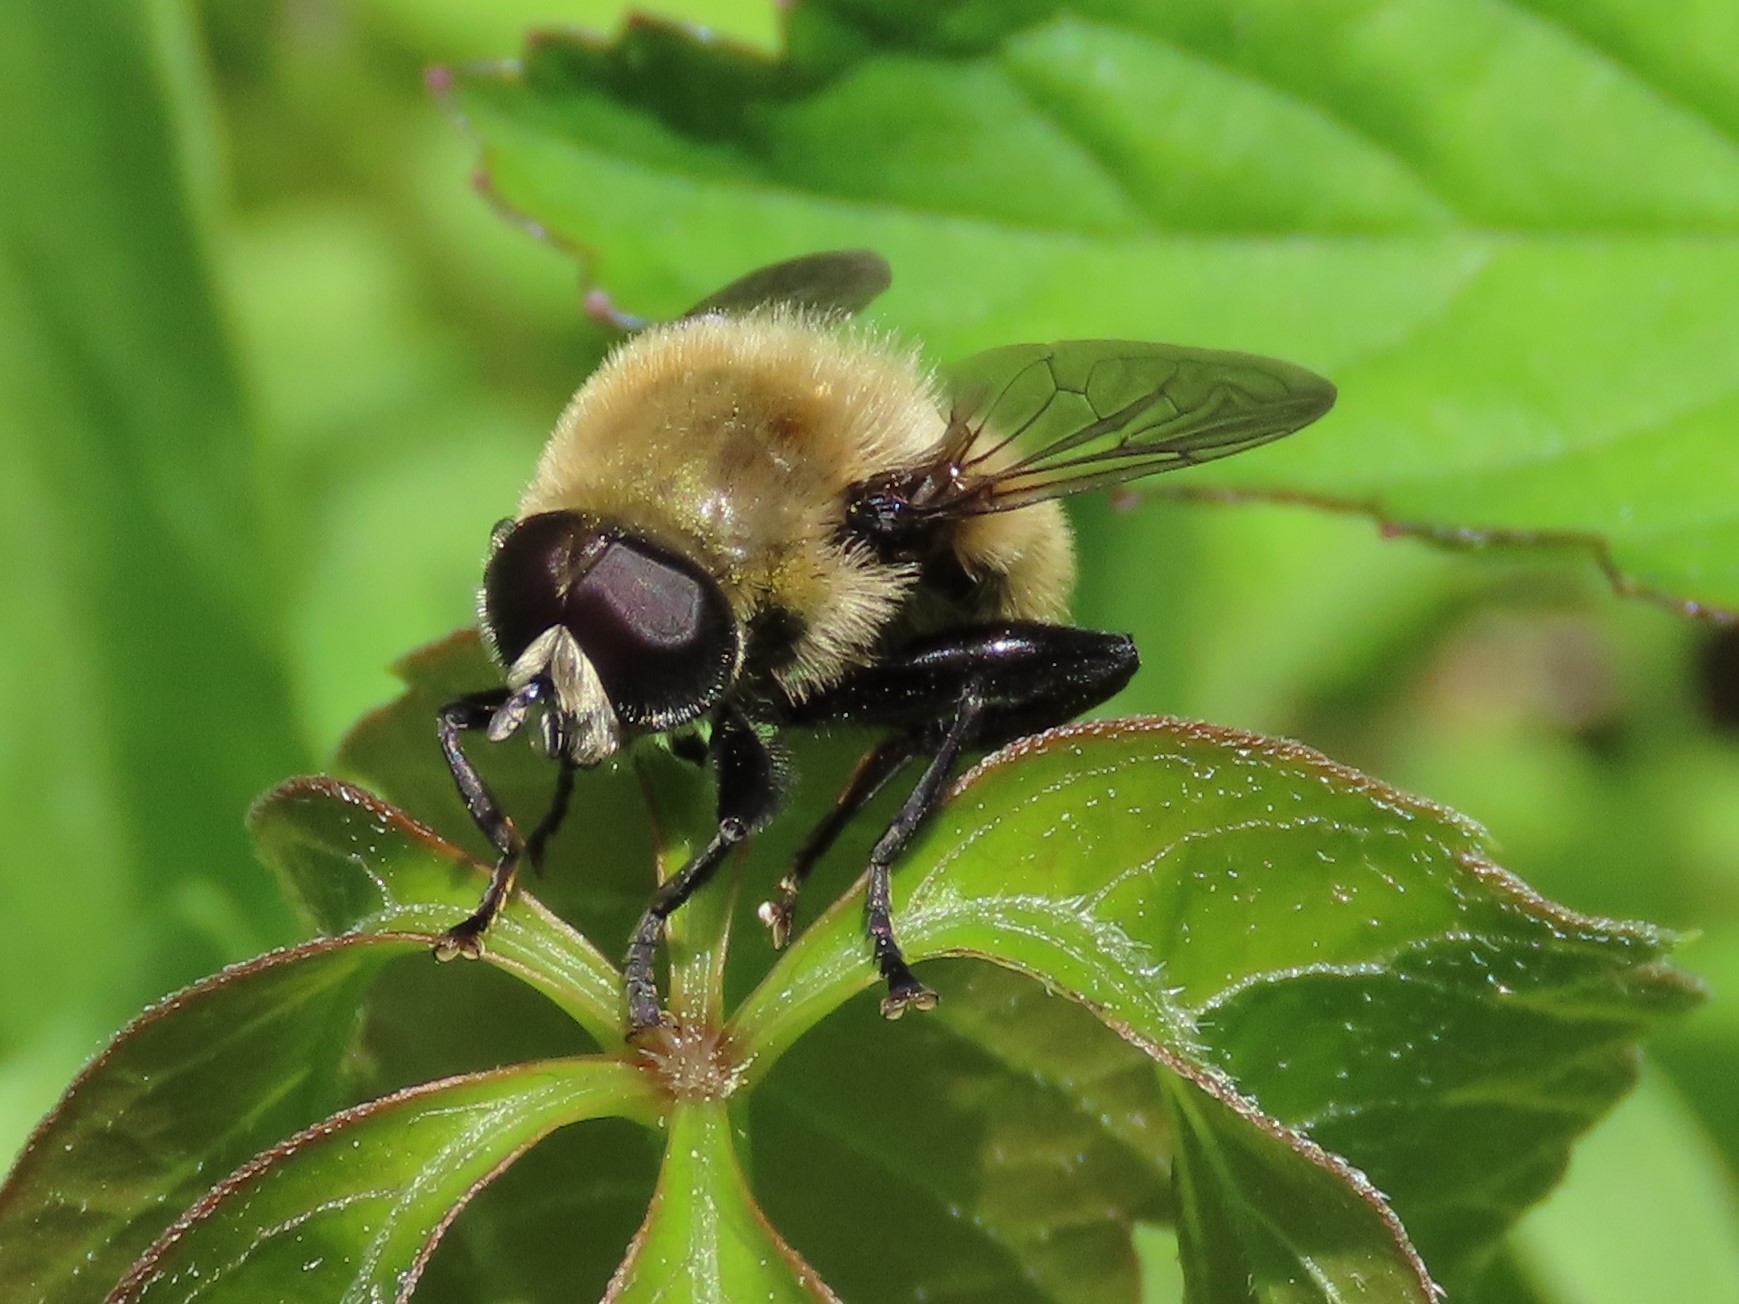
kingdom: Animalia
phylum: Arthropoda
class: Insecta
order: Diptera
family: Syrphidae
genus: Merodon
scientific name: Merodon equestris
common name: Greater bulb-fly
